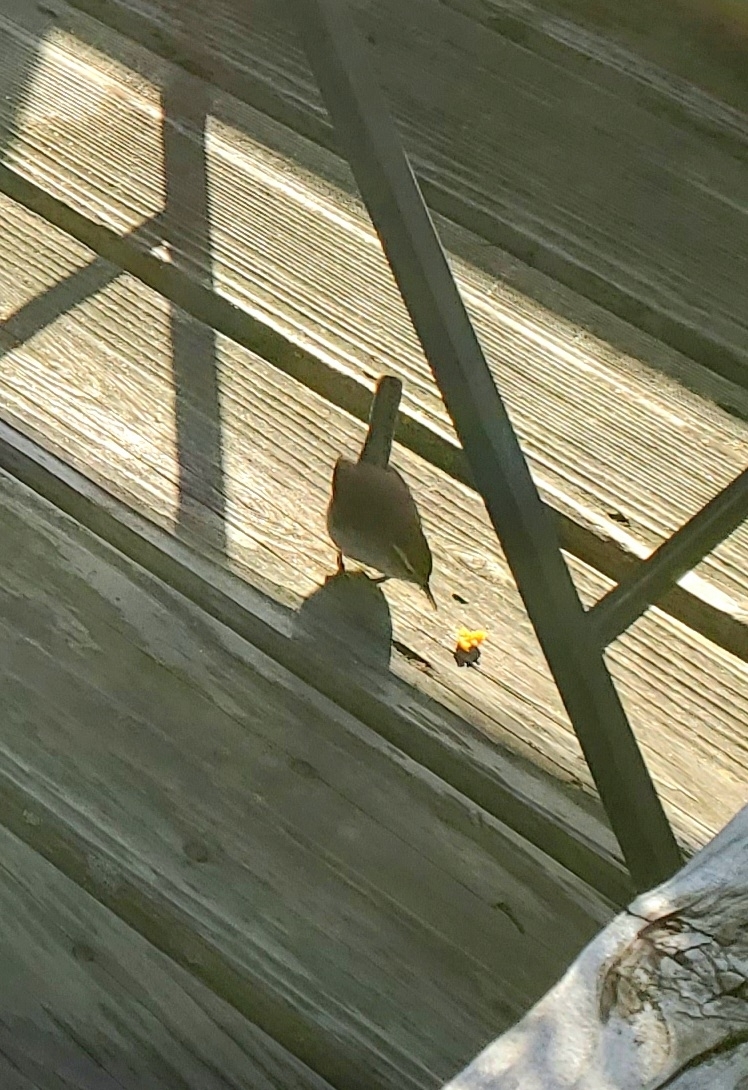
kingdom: Animalia
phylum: Chordata
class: Aves
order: Passeriformes
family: Troglodytidae
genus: Thryomanes
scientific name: Thryomanes bewickii
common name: Bewick's wren
